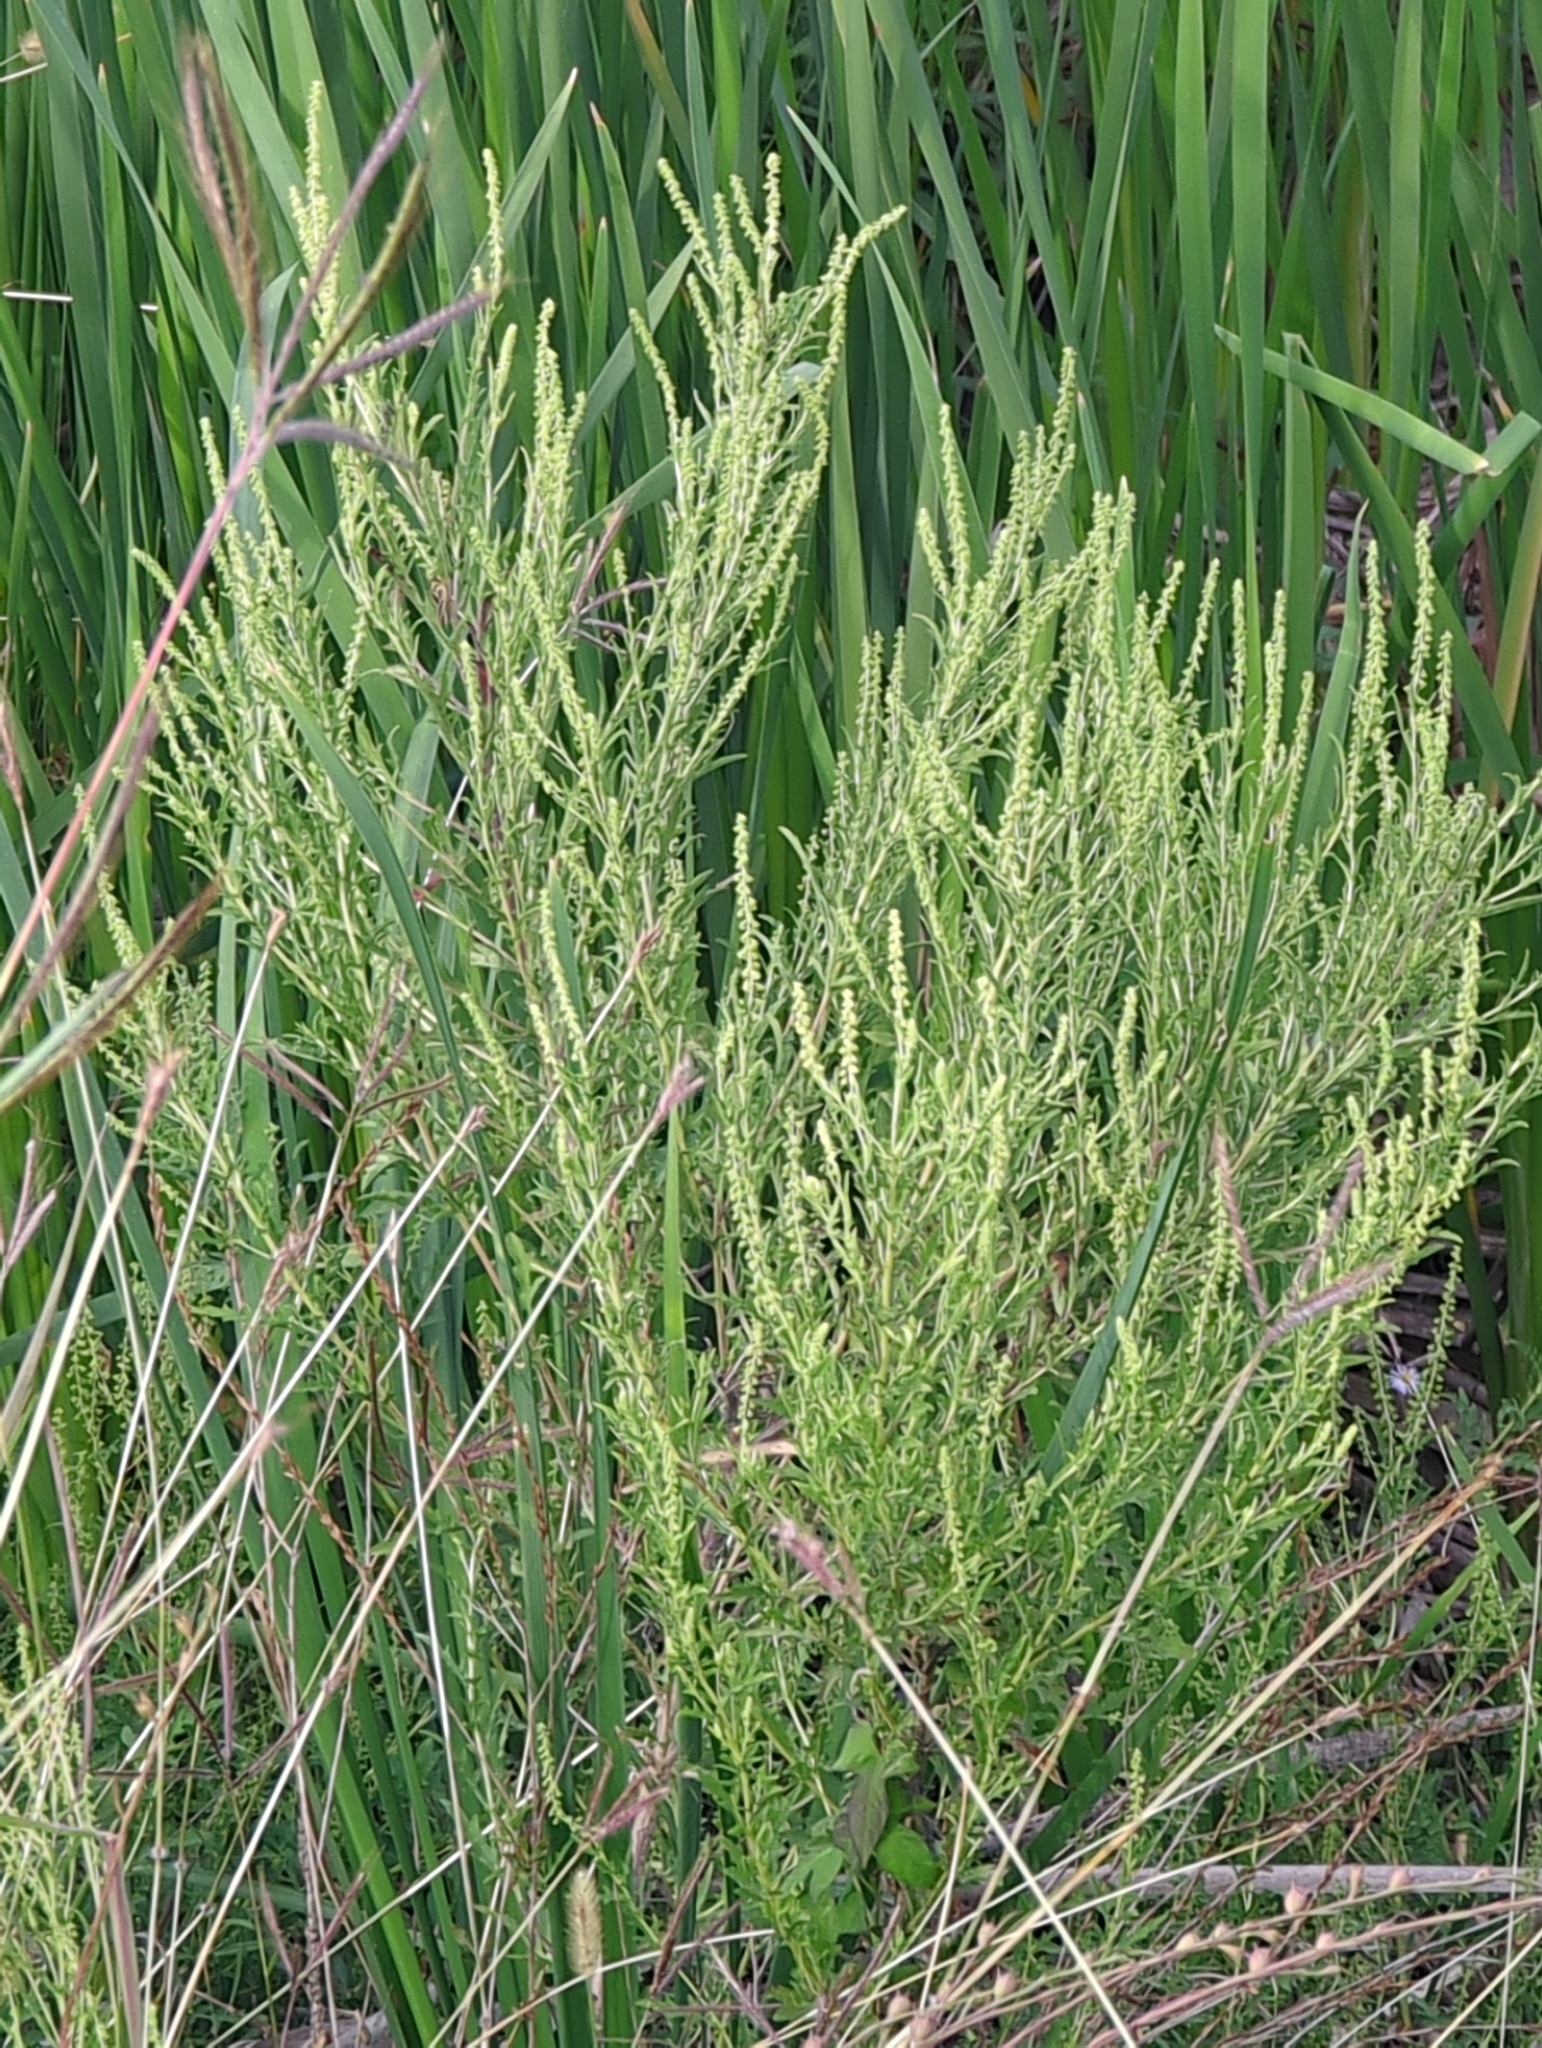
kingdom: Plantae
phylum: Tracheophyta
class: Magnoliopsida
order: Asterales
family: Asteraceae
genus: Ambrosia
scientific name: Ambrosia psilostachya
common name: Perennial ragweed
